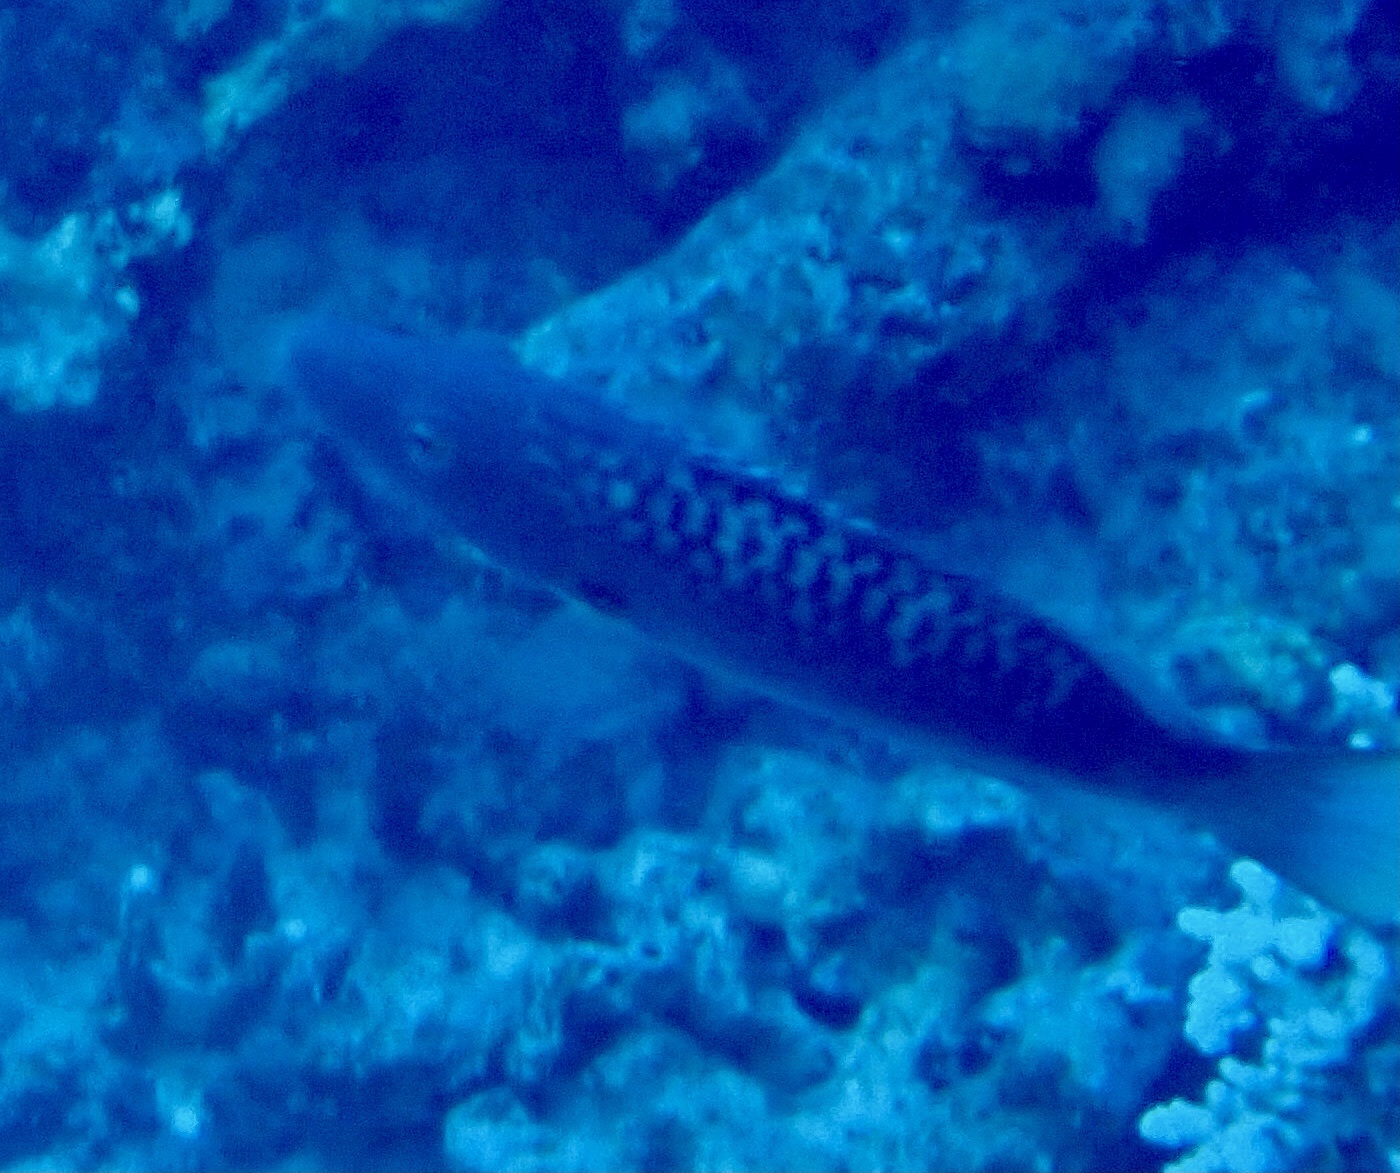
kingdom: Animalia
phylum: Chordata
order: Perciformes
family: Labridae
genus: Oxycheilinus
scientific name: Oxycheilinus digramma
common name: Bandcheek wrasse
